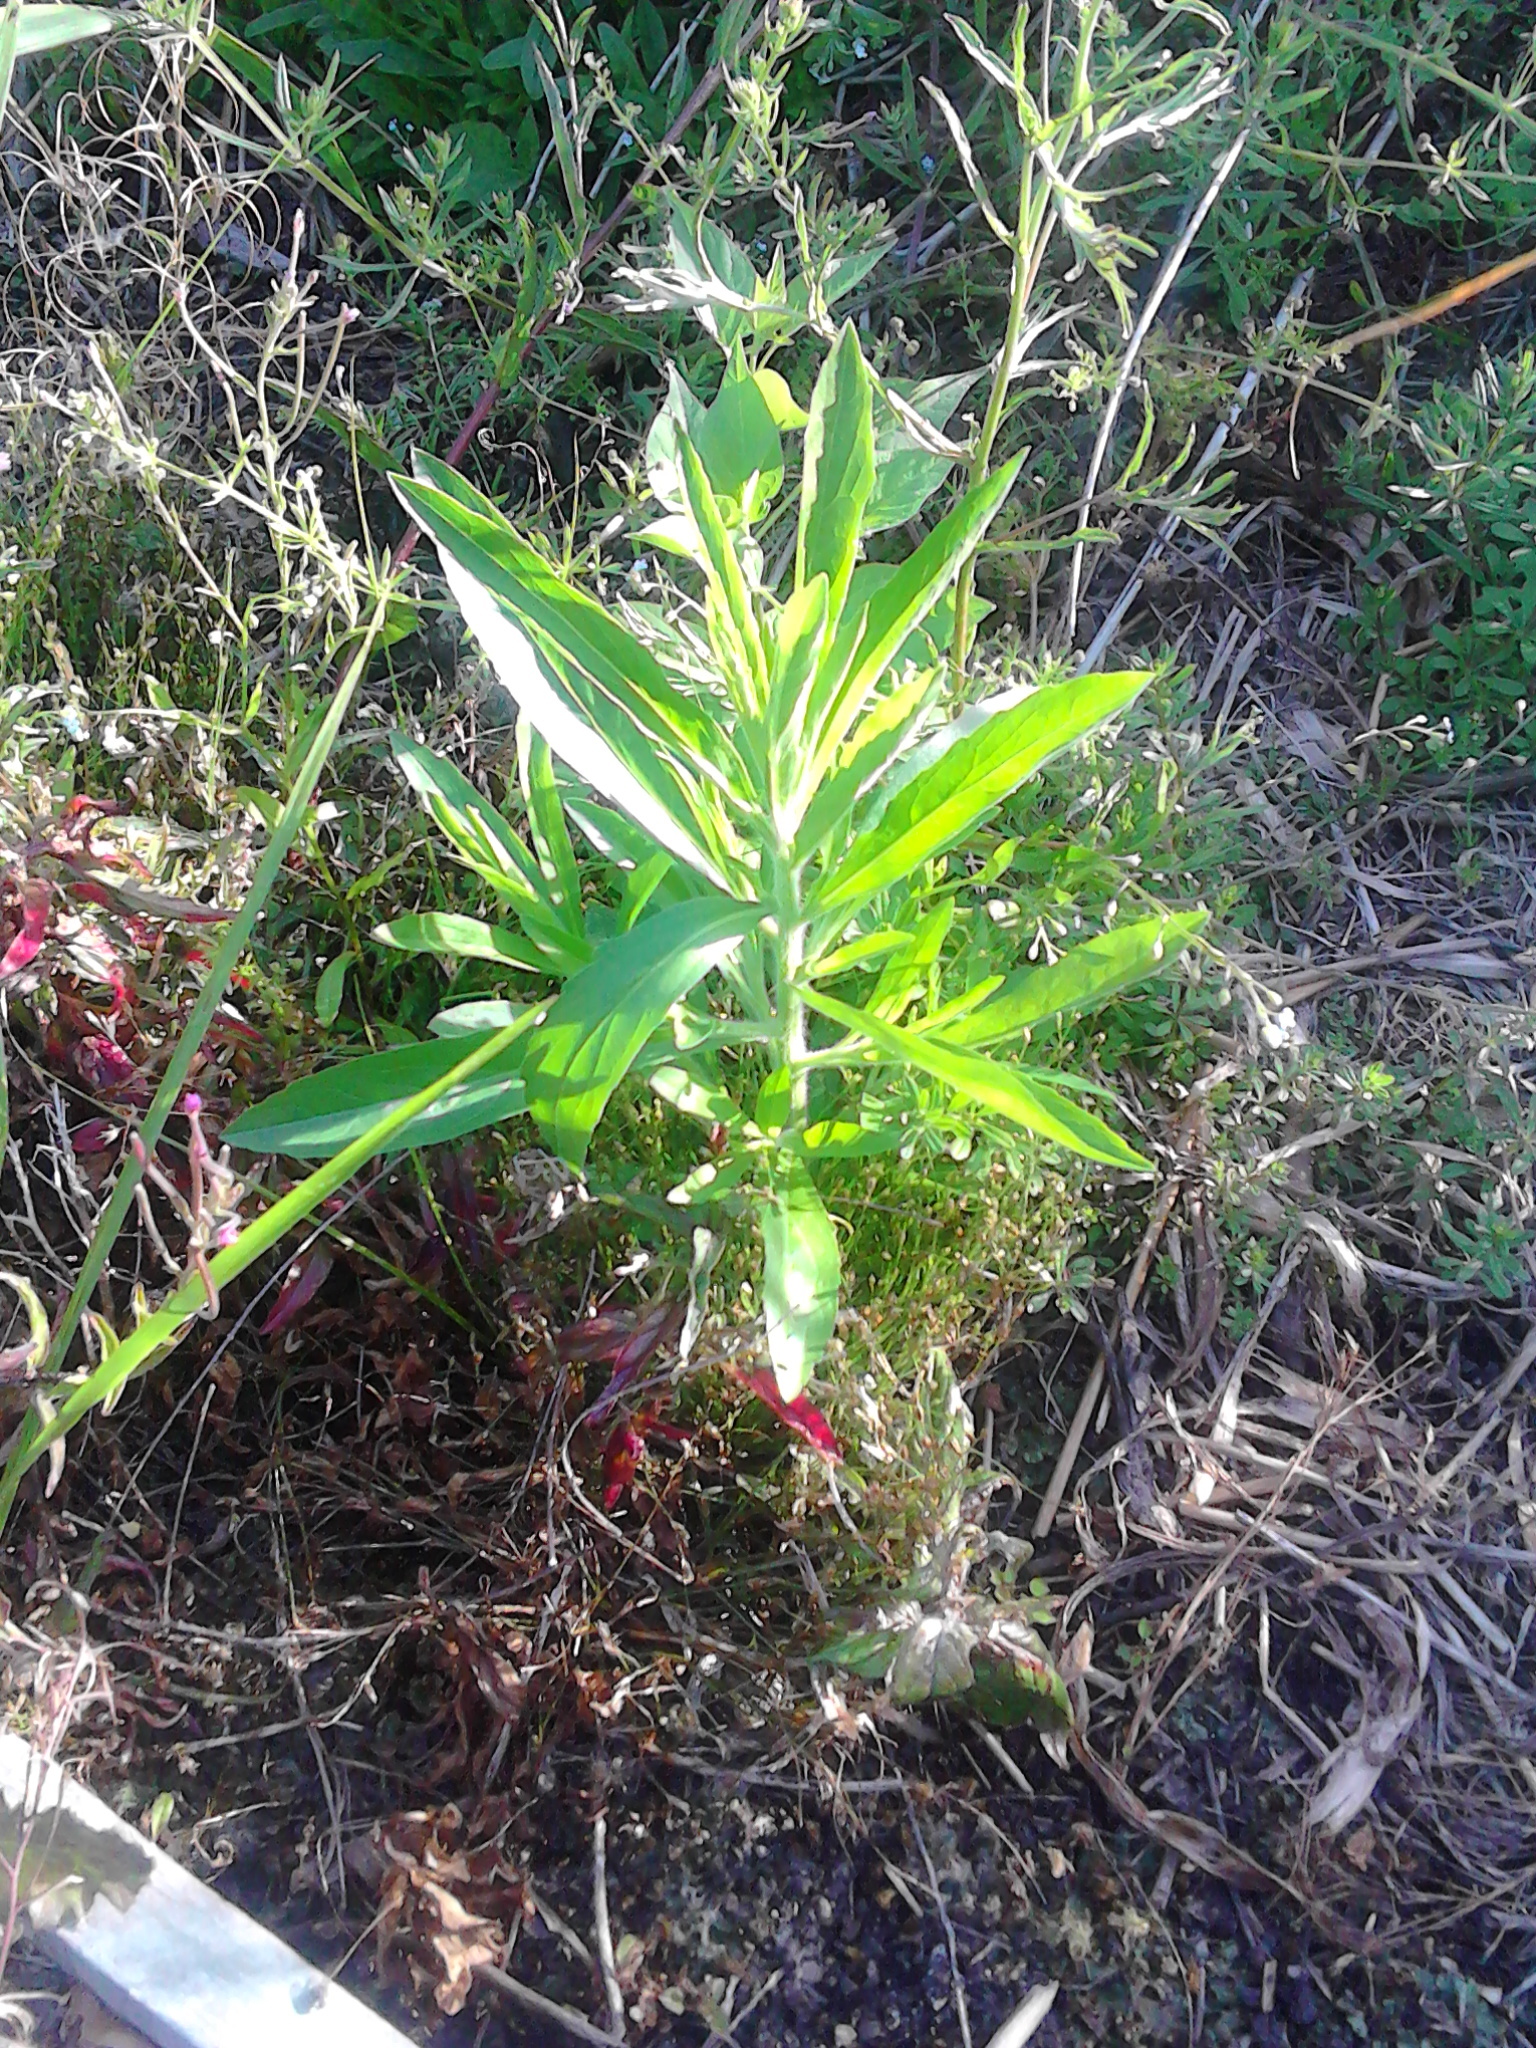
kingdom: Plantae
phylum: Tracheophyta
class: Magnoliopsida
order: Asterales
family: Asteraceae
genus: Erigeron
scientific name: Erigeron sumatrensis
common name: Daisy
